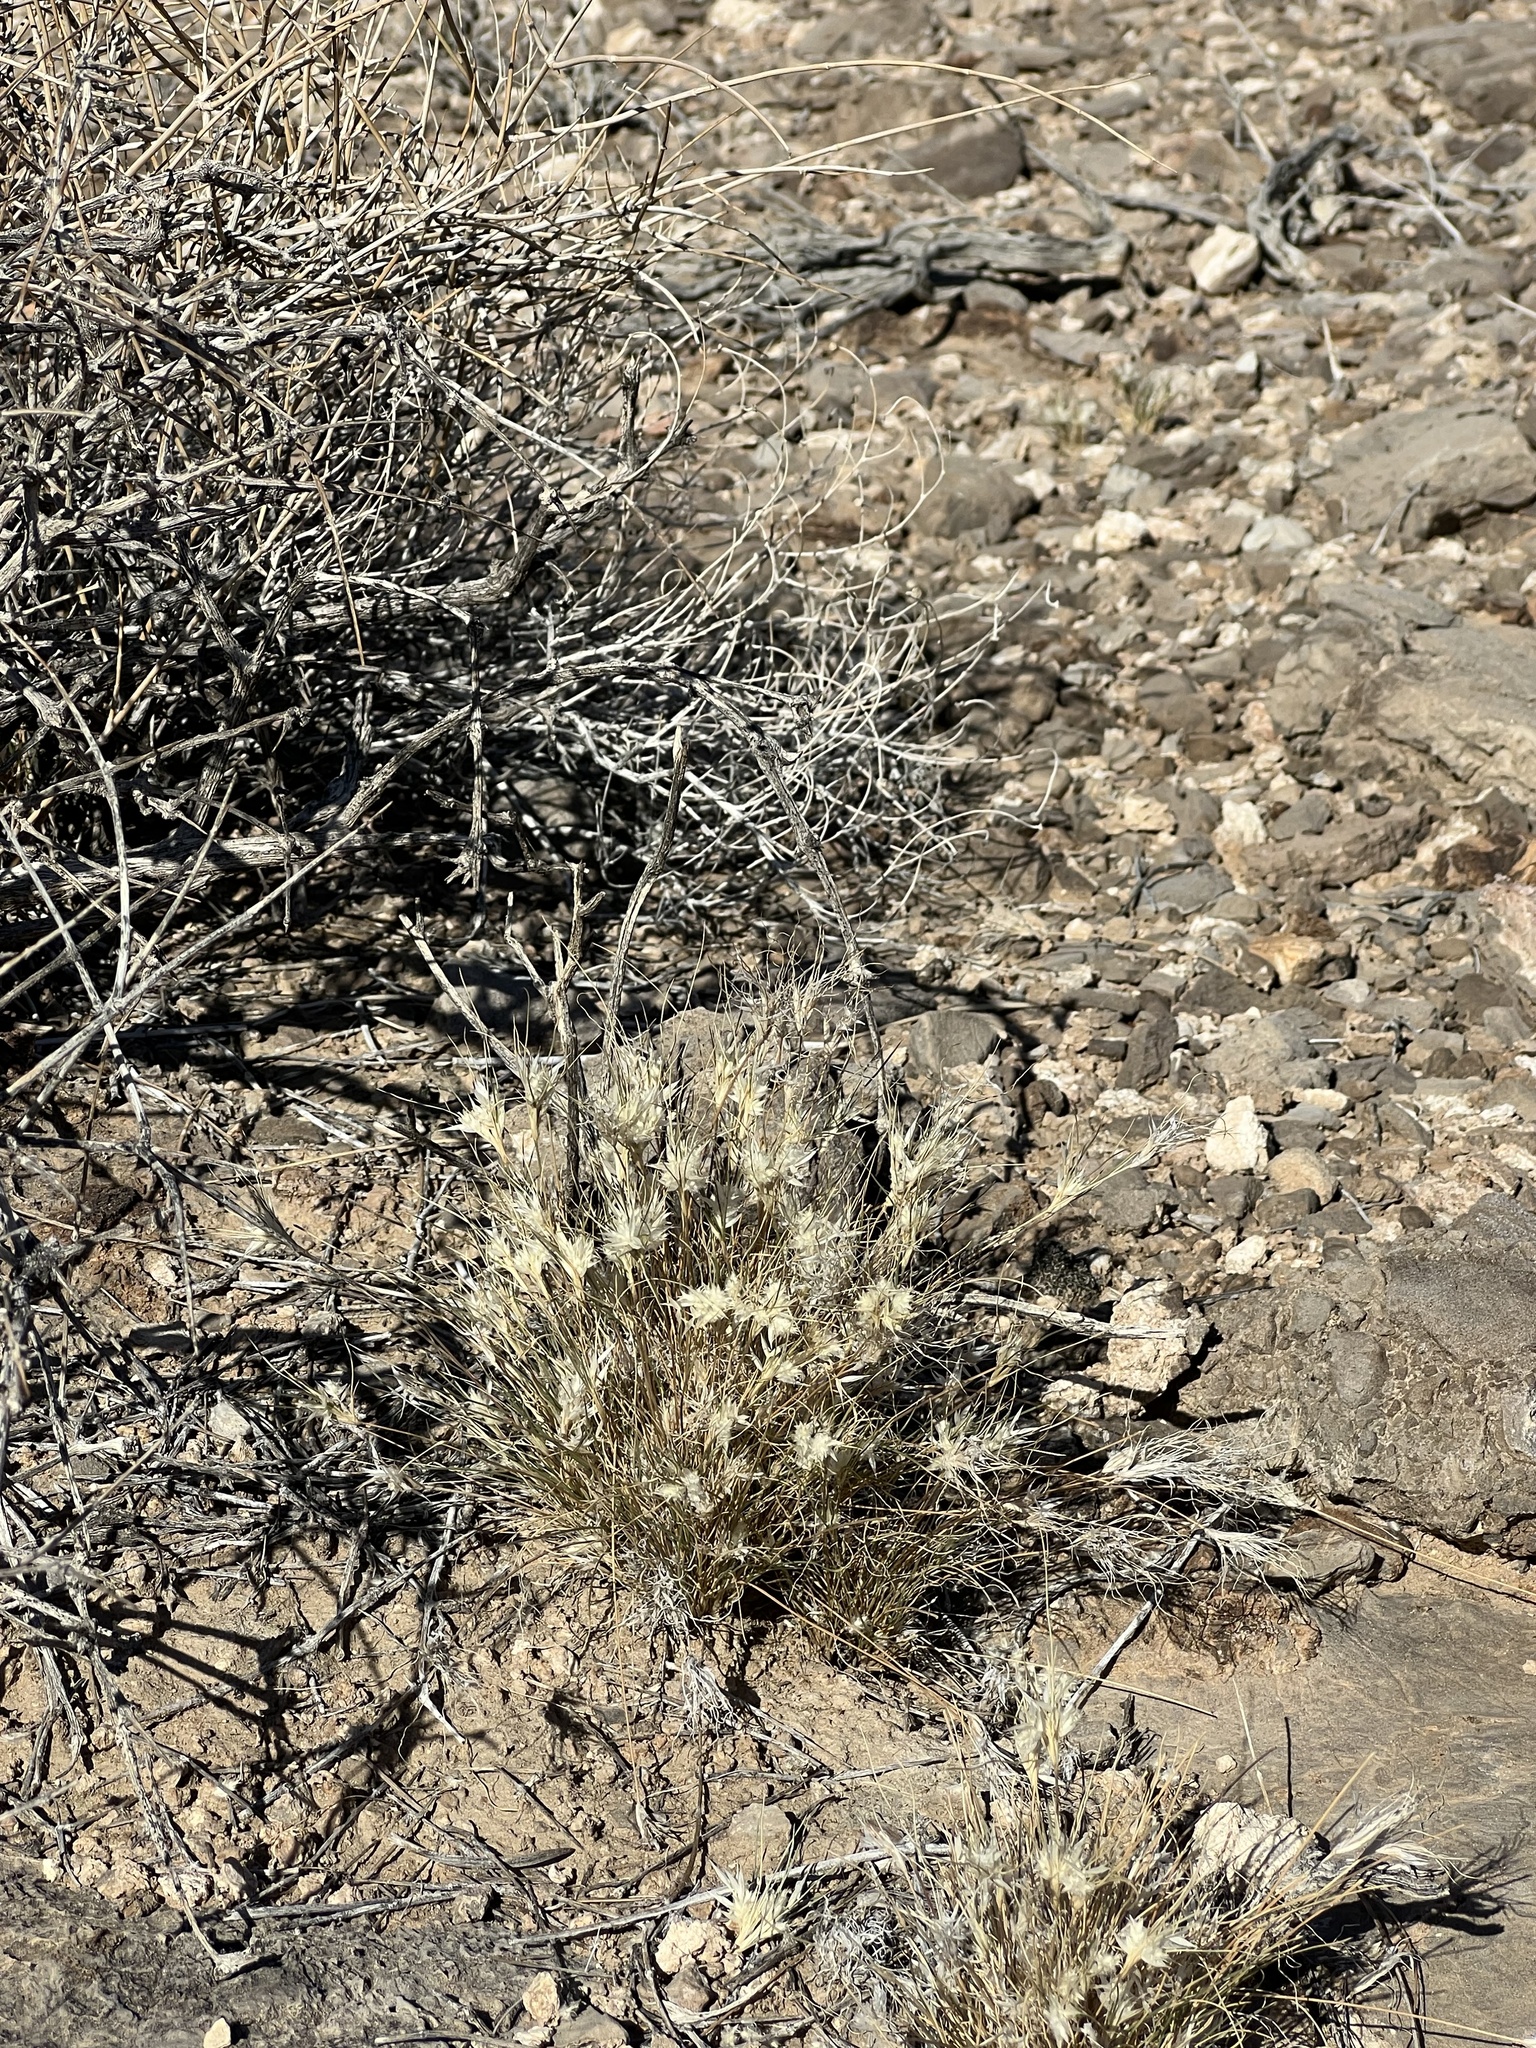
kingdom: Plantae
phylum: Tracheophyta
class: Liliopsida
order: Poales
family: Poaceae
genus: Dasyochloa
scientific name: Dasyochloa pulchella
